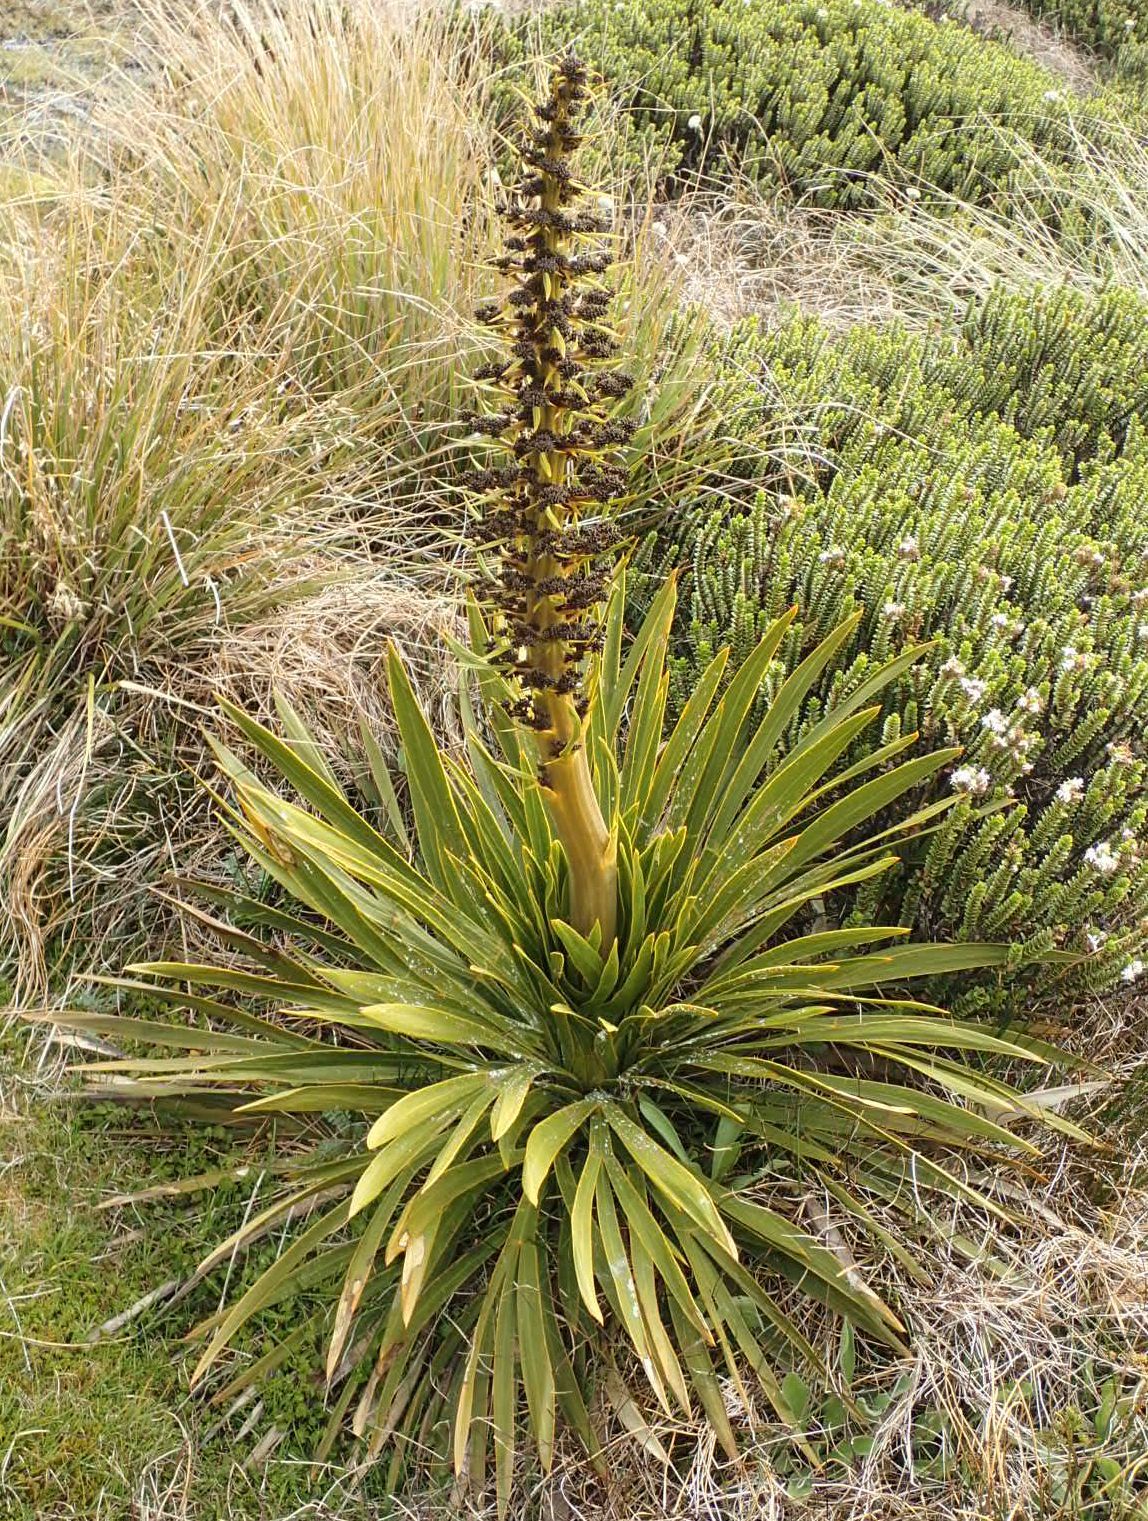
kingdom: Plantae
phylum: Tracheophyta
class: Magnoliopsida
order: Apiales
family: Apiaceae
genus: Aciphylla
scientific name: Aciphylla kirkii
